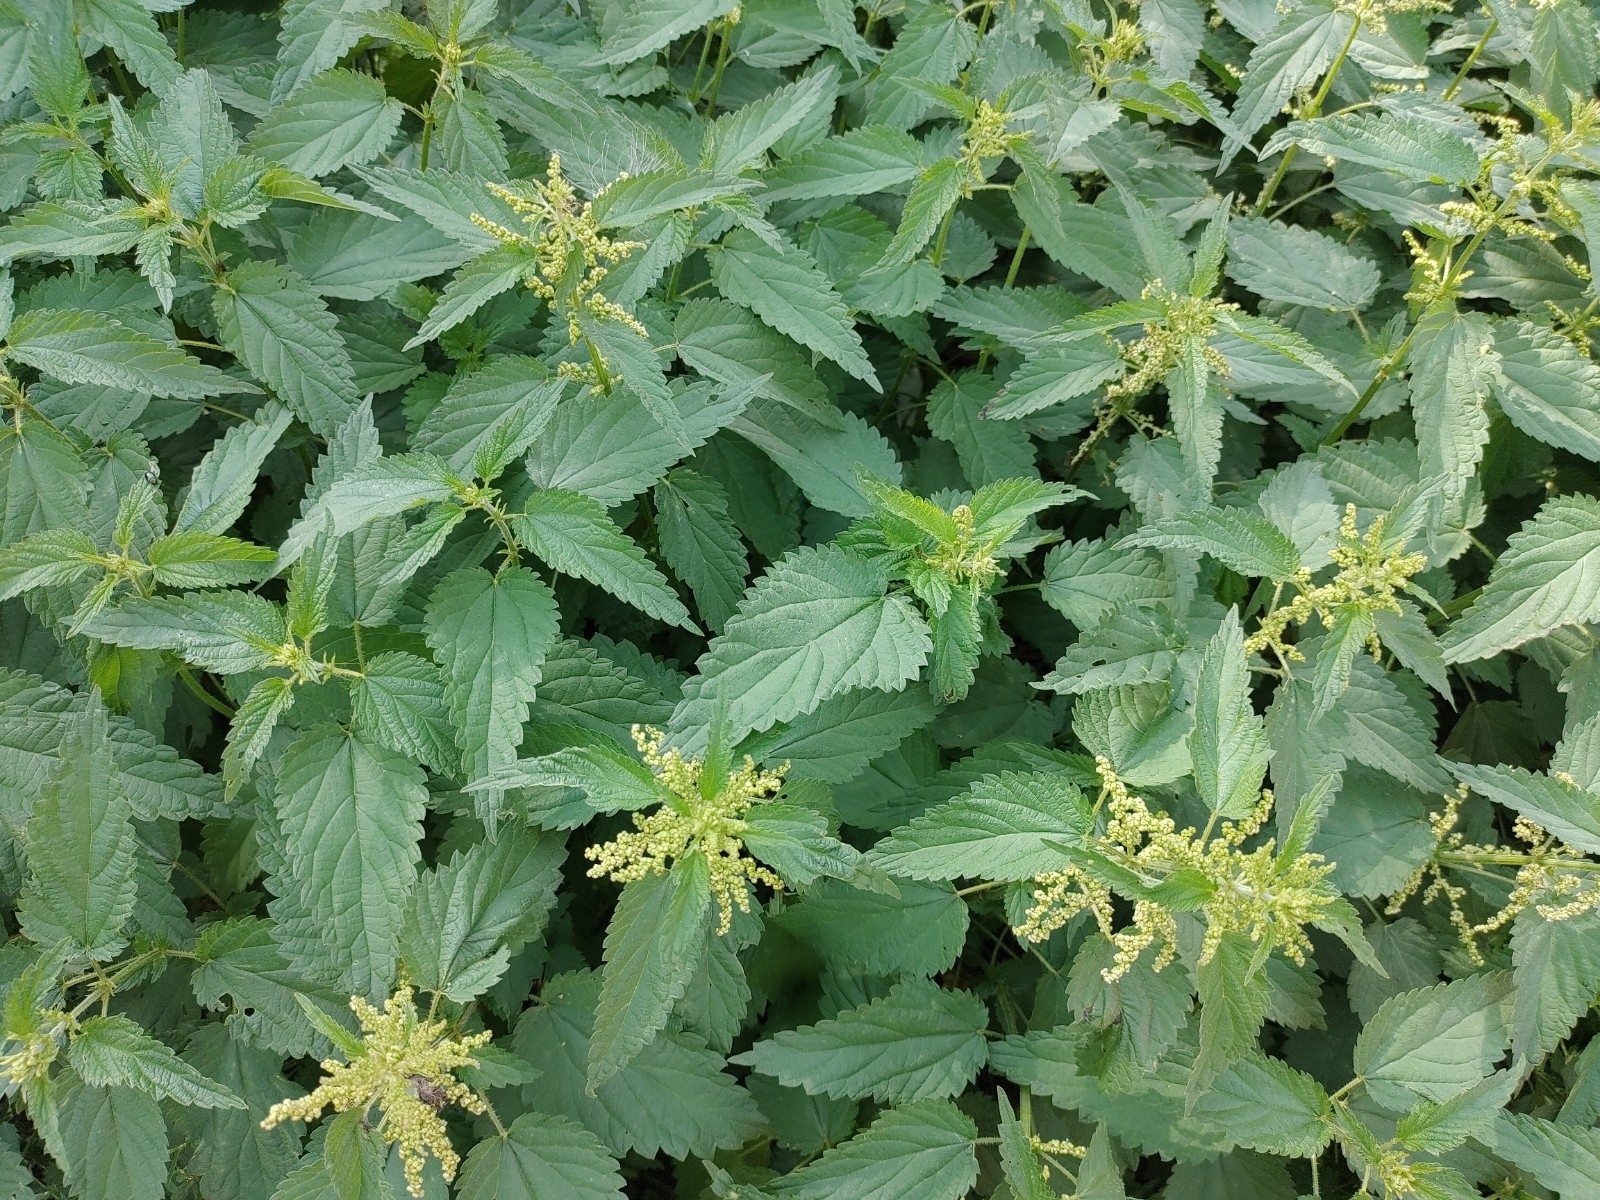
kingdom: Plantae
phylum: Tracheophyta
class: Magnoliopsida
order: Rosales
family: Urticaceae
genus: Urtica
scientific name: Urtica dioica
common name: Common nettle
